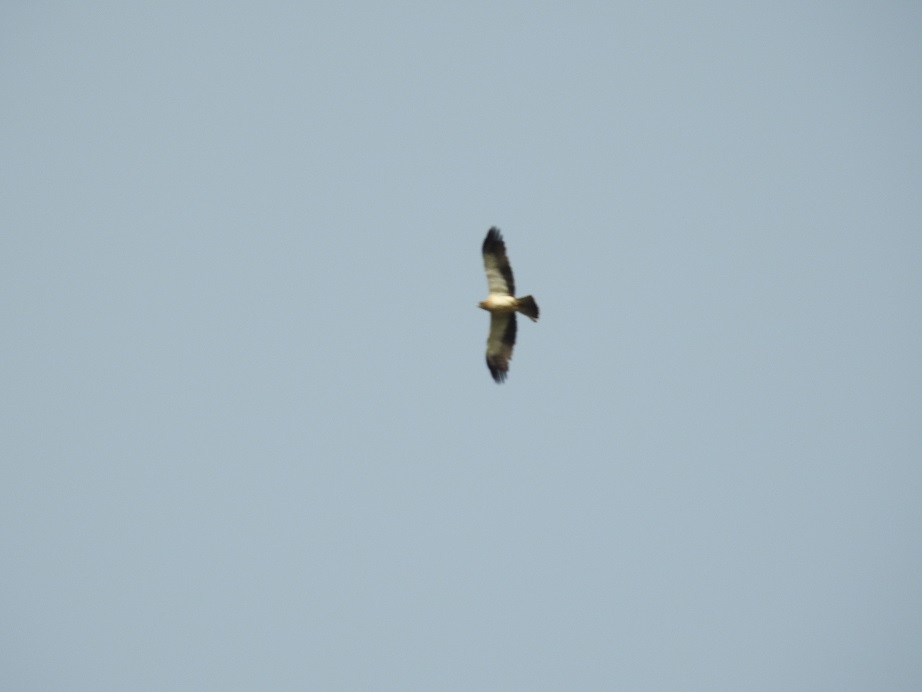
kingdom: Animalia
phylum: Chordata
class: Aves
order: Accipitriformes
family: Accipitridae
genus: Hieraaetus
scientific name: Hieraaetus pennatus
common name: Booted eagle
